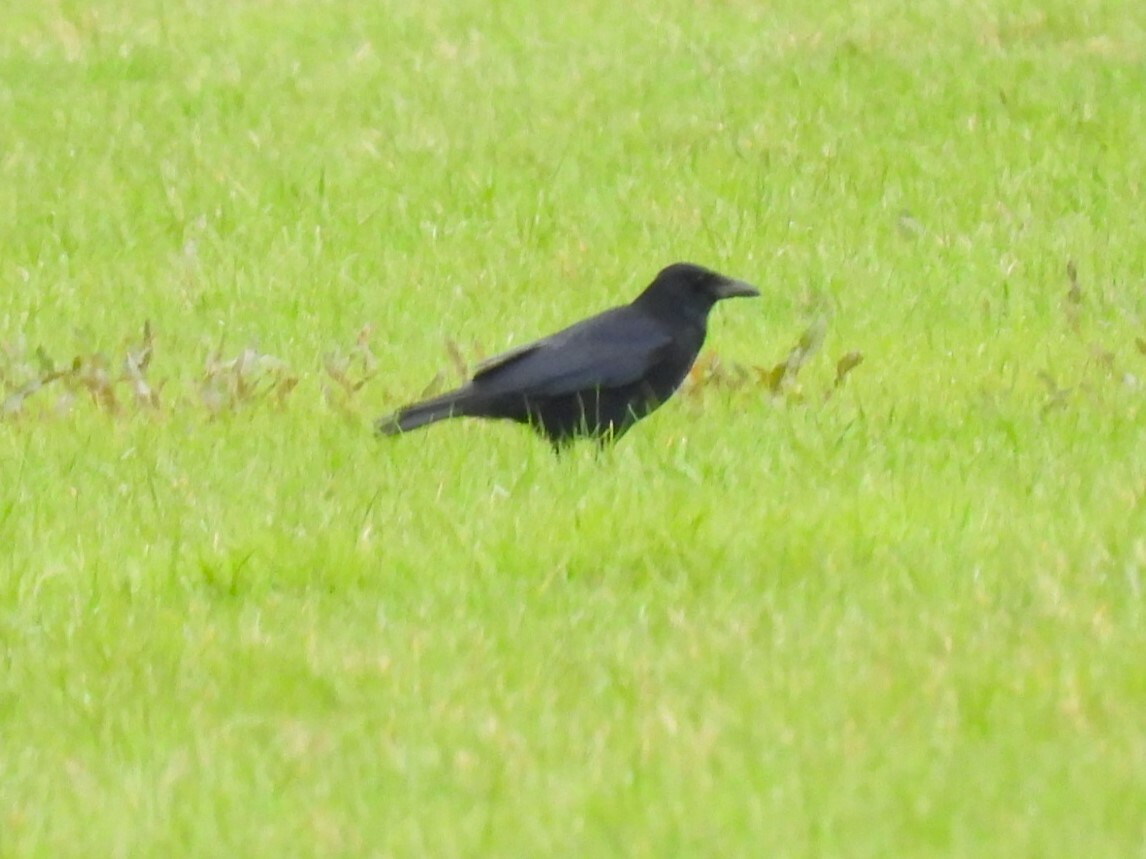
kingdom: Animalia
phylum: Chordata
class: Aves
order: Passeriformes
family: Corvidae
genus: Corvus
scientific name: Corvus corone
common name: Carrion crow
